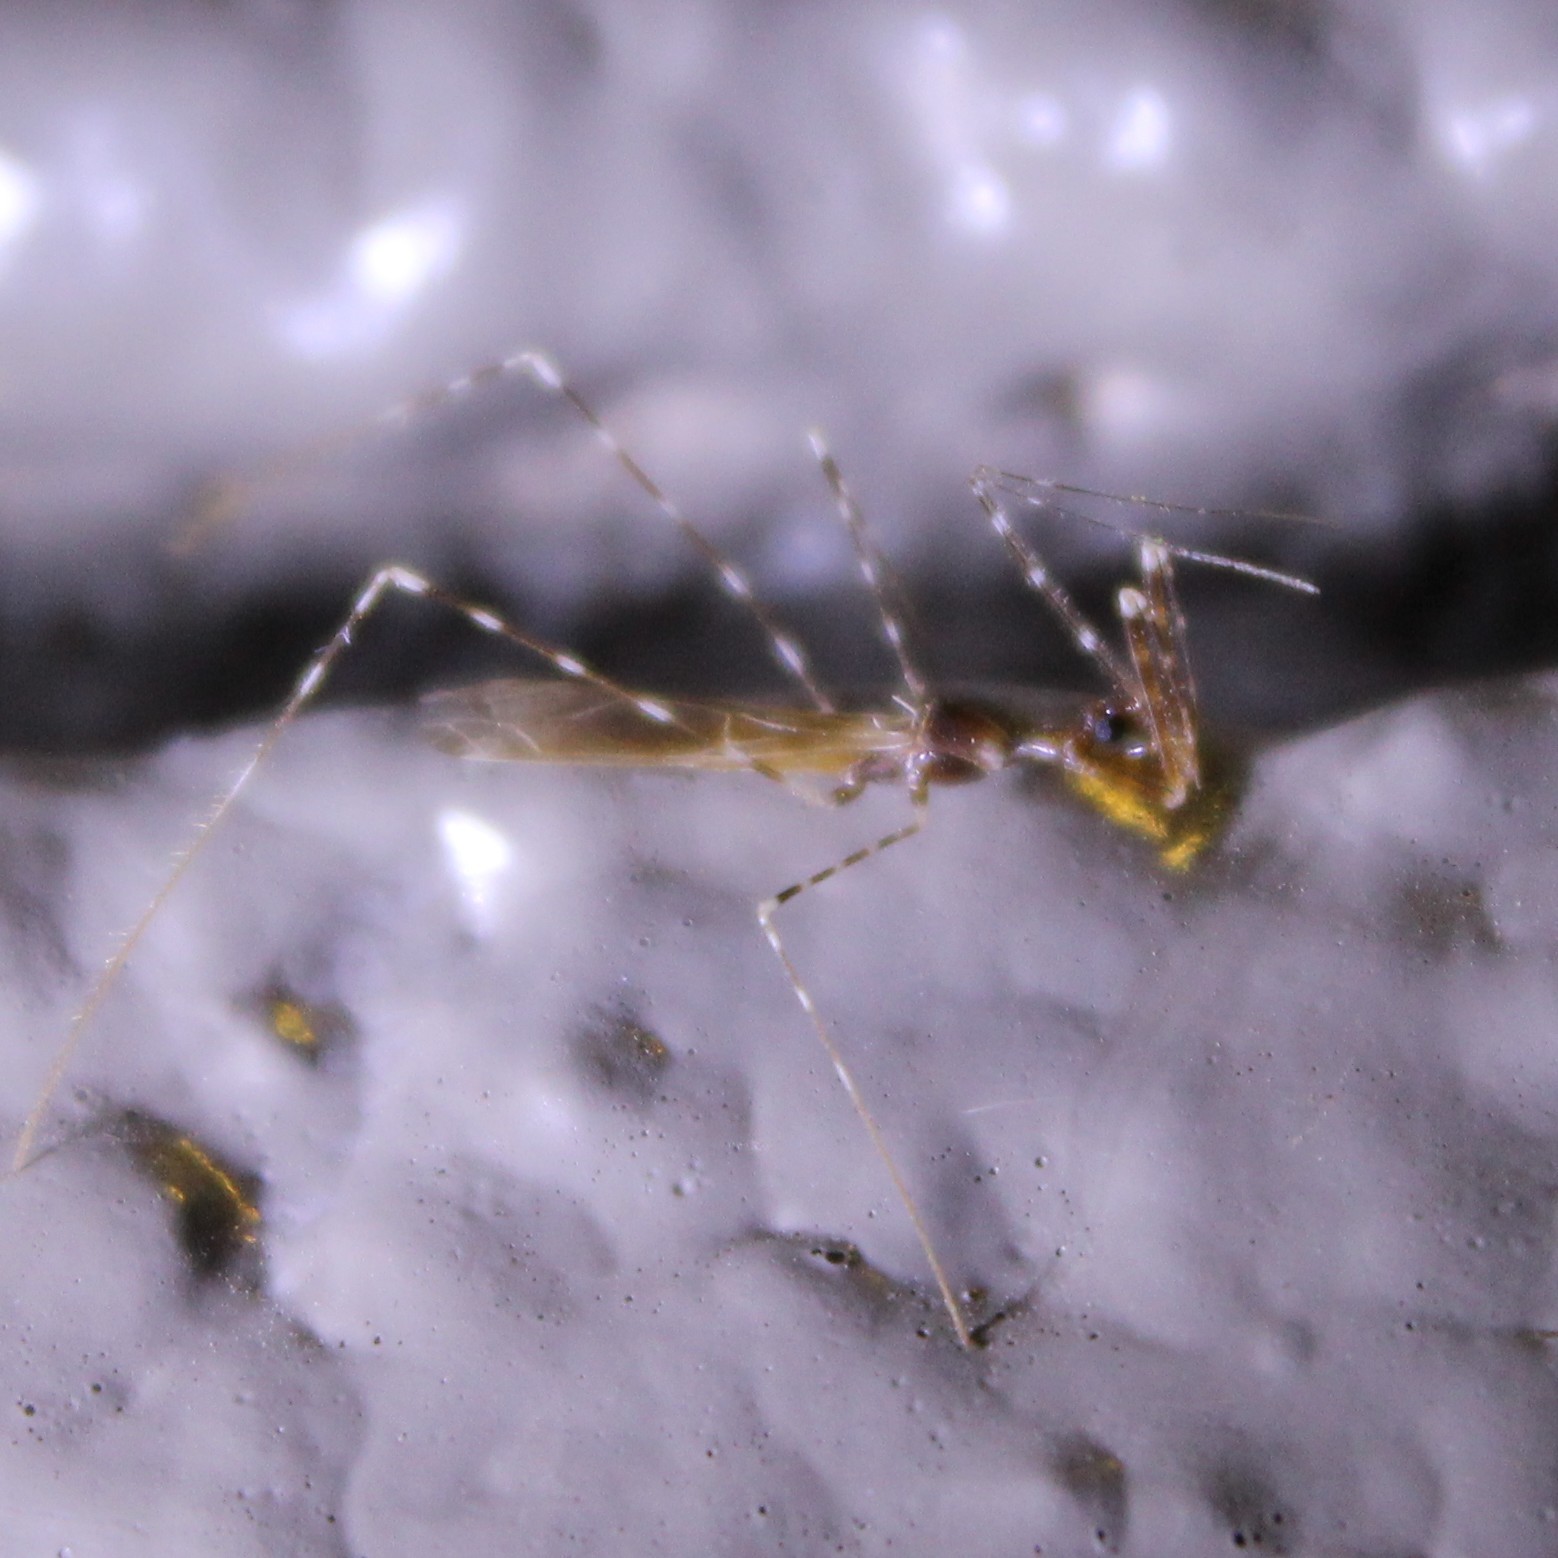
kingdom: Animalia
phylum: Arthropoda
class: Insecta
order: Hemiptera
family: Reduviidae
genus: Stenolemoides
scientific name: Stenolemoides arizonensis
